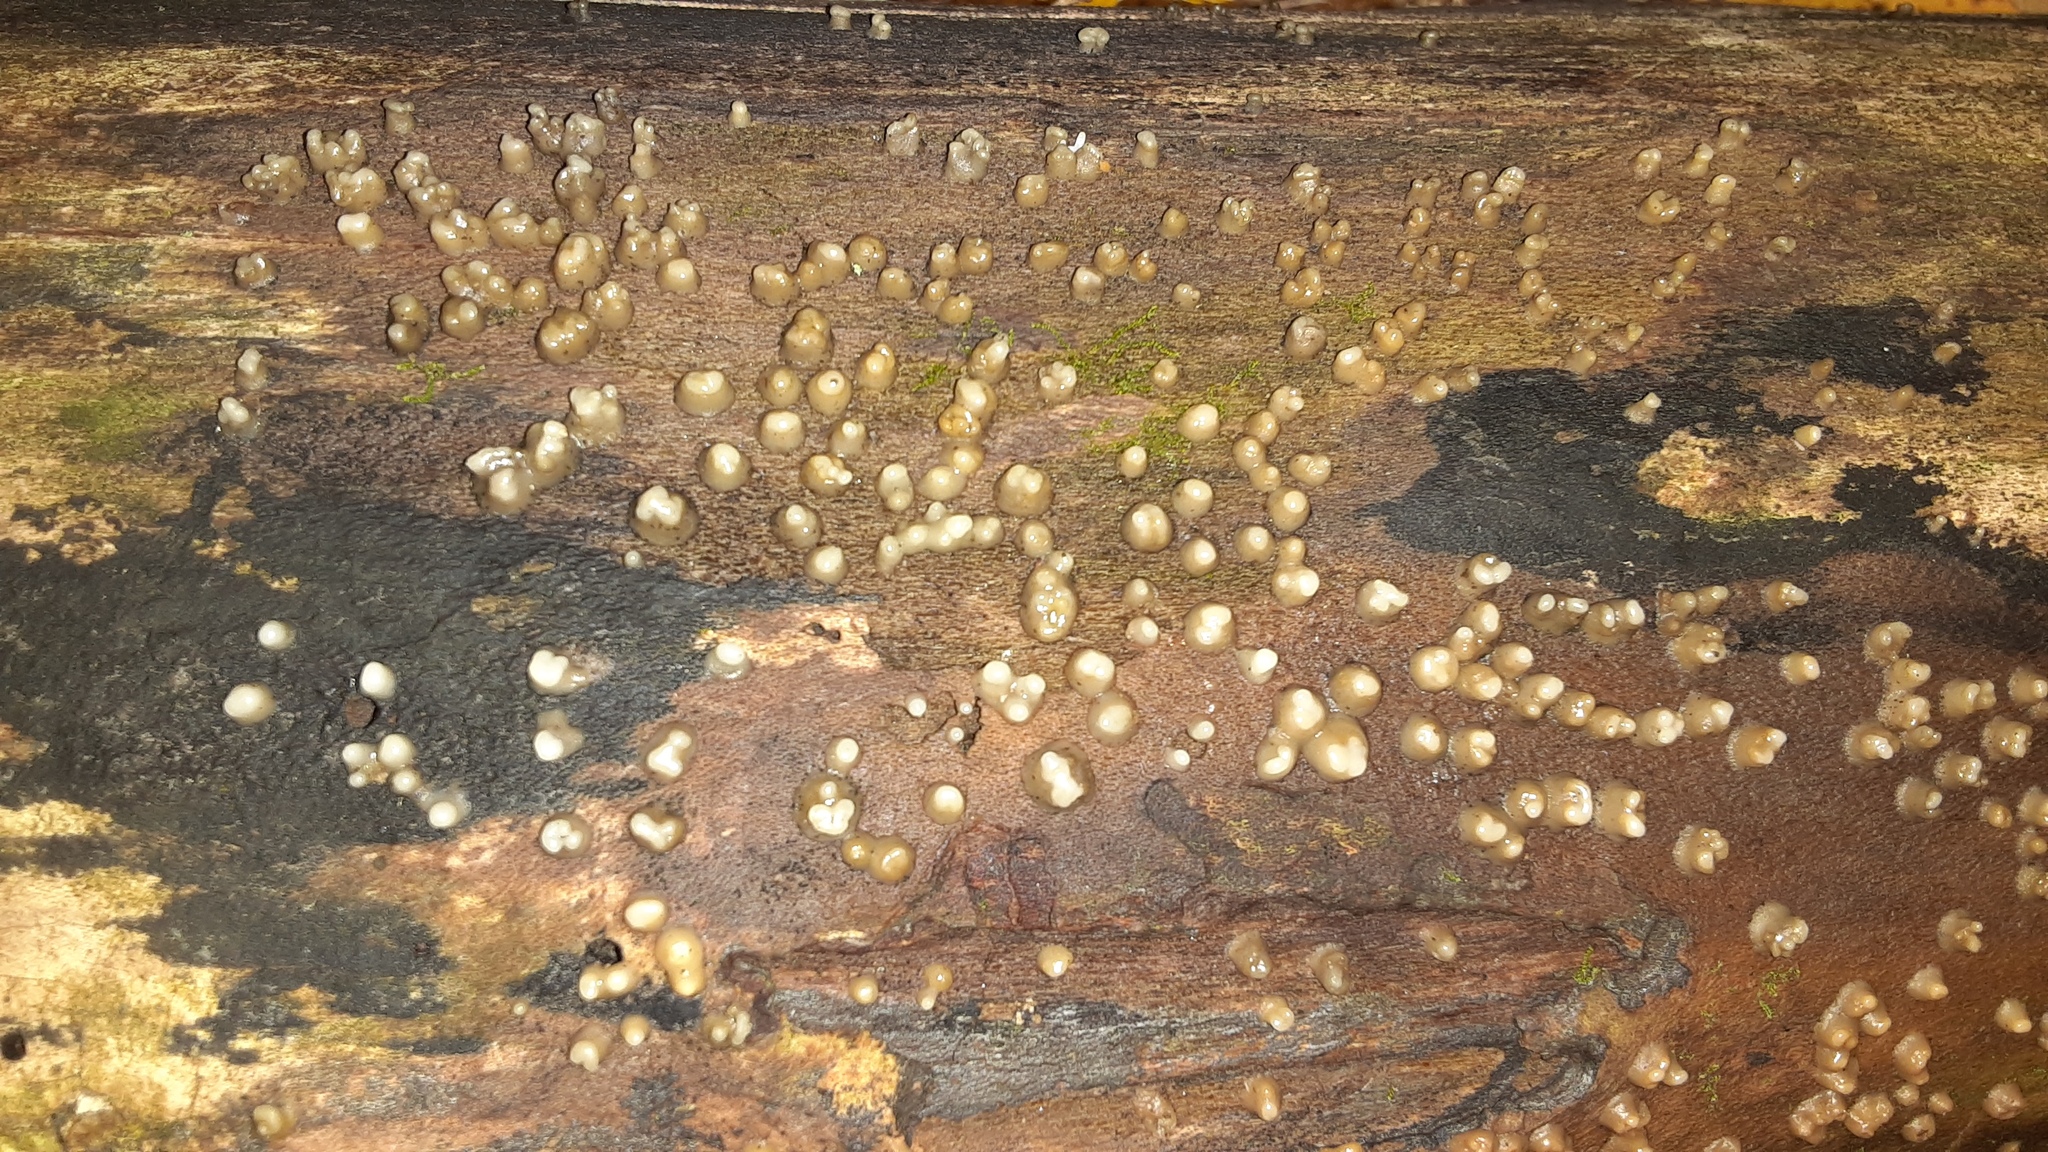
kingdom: Fungi
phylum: Basidiomycota
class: Atractiellomycetes
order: Atractiellales
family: Phleogenaceae
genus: Helicogloea
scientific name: Helicogloea compressa
